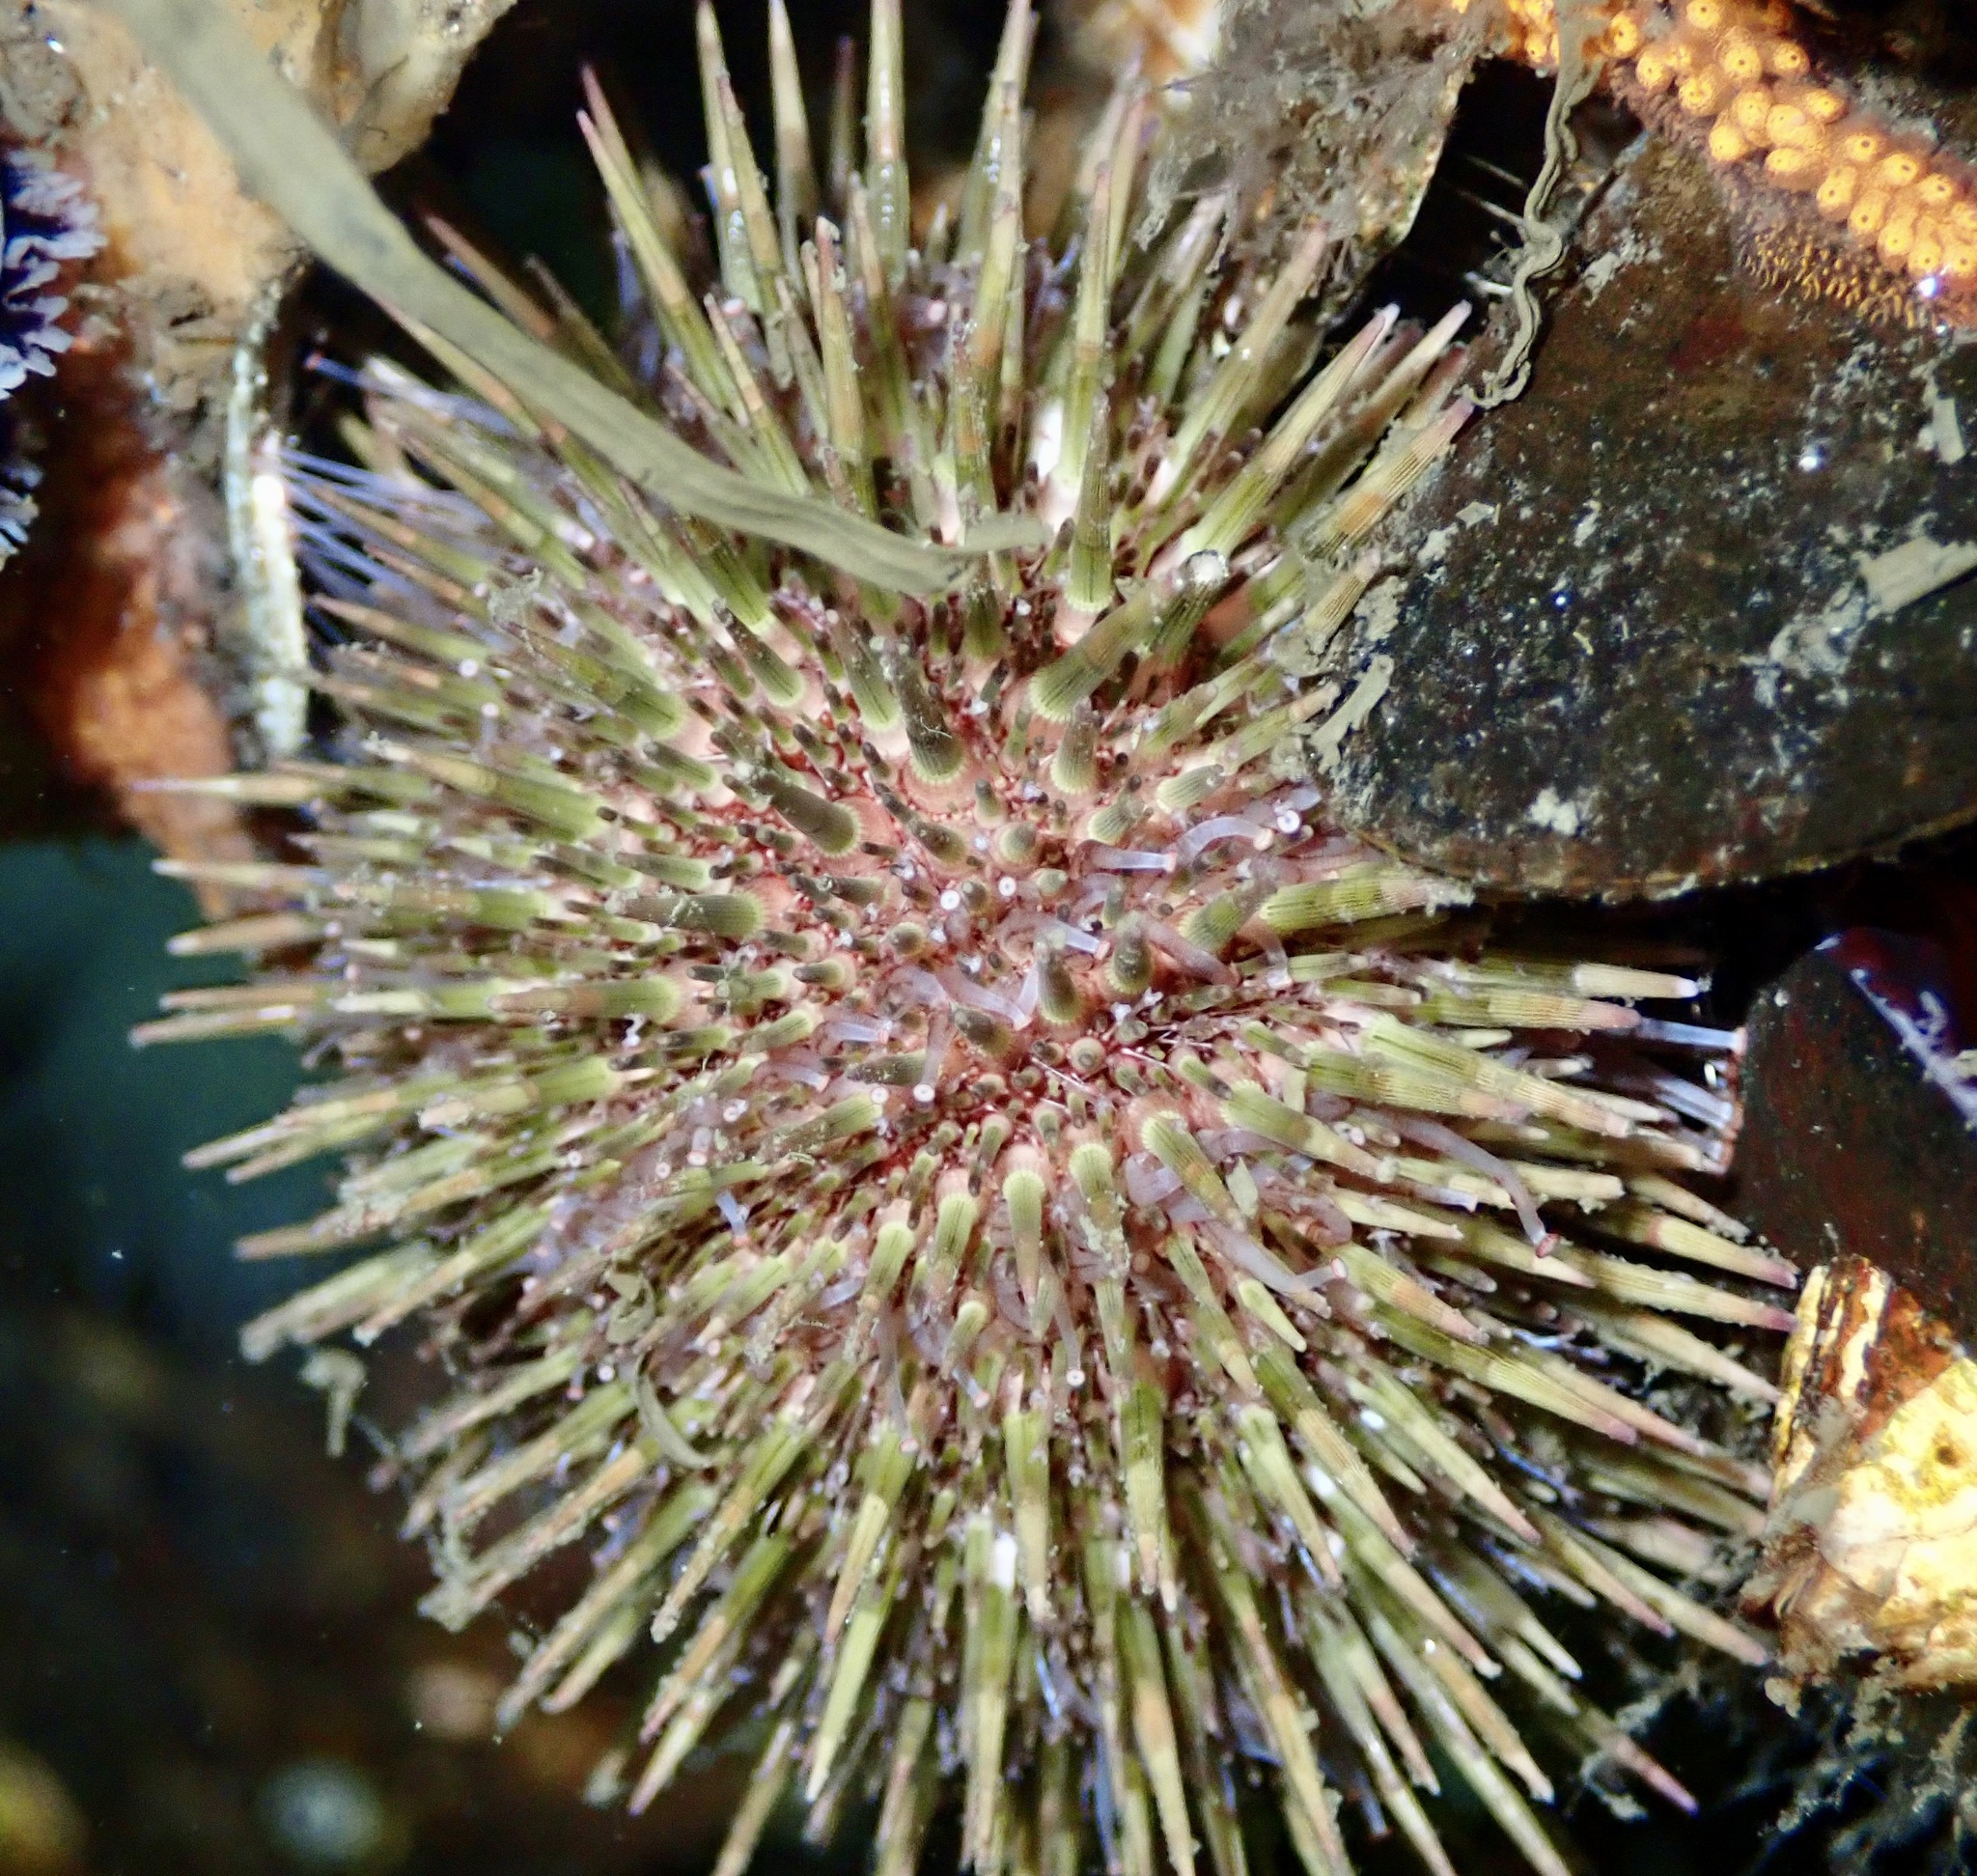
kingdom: Animalia
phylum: Echinodermata
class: Echinoidea
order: Camarodonta
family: Parechinidae
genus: Psammechinus
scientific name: Psammechinus miliaris
